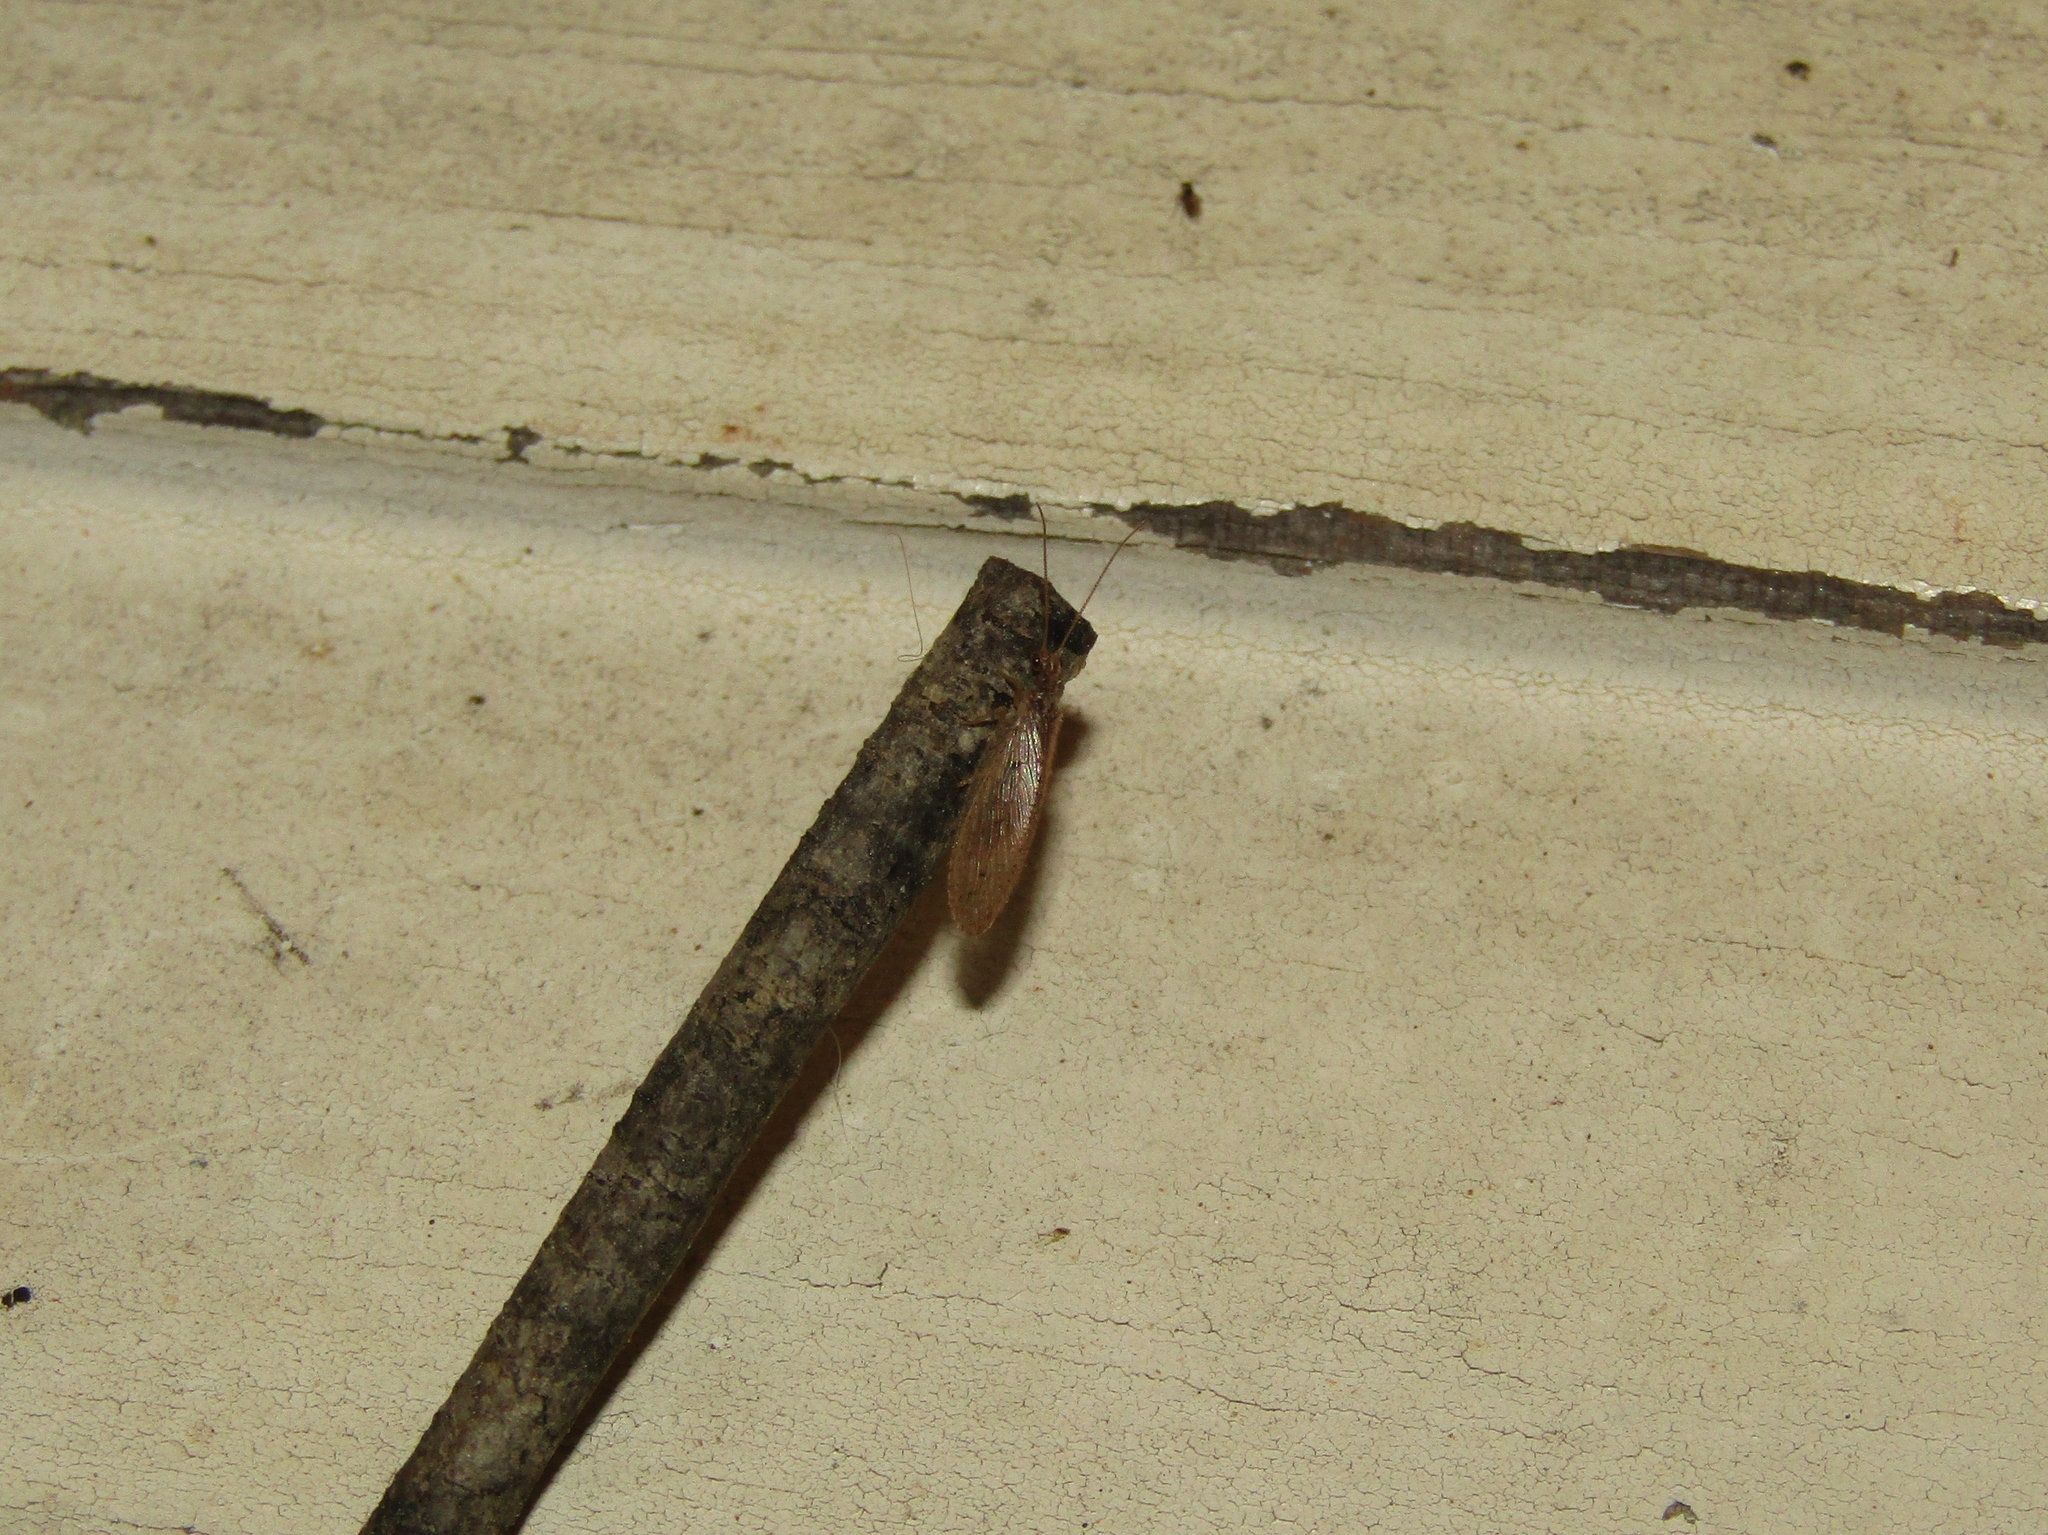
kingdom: Animalia
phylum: Arthropoda
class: Insecta
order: Neuroptera
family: Hemerobiidae
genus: Hemerobius
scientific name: Hemerobius stigma
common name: Brown pine lacewing
